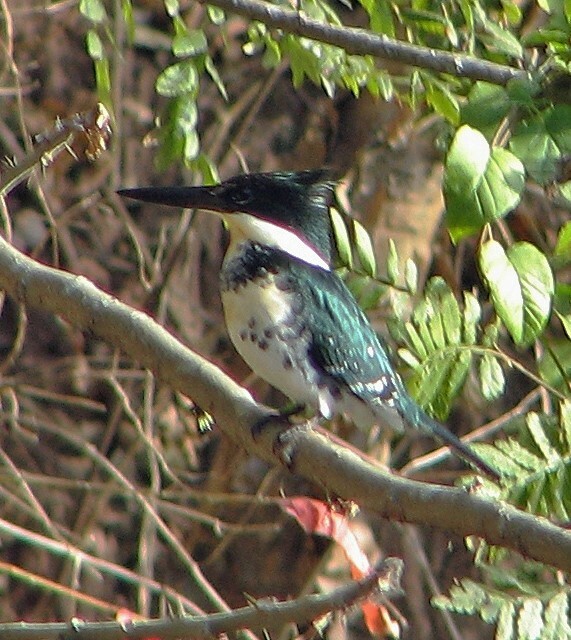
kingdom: Animalia
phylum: Chordata
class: Aves
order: Coraciiformes
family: Alcedinidae
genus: Chloroceryle
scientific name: Chloroceryle americana
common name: Green kingfisher
